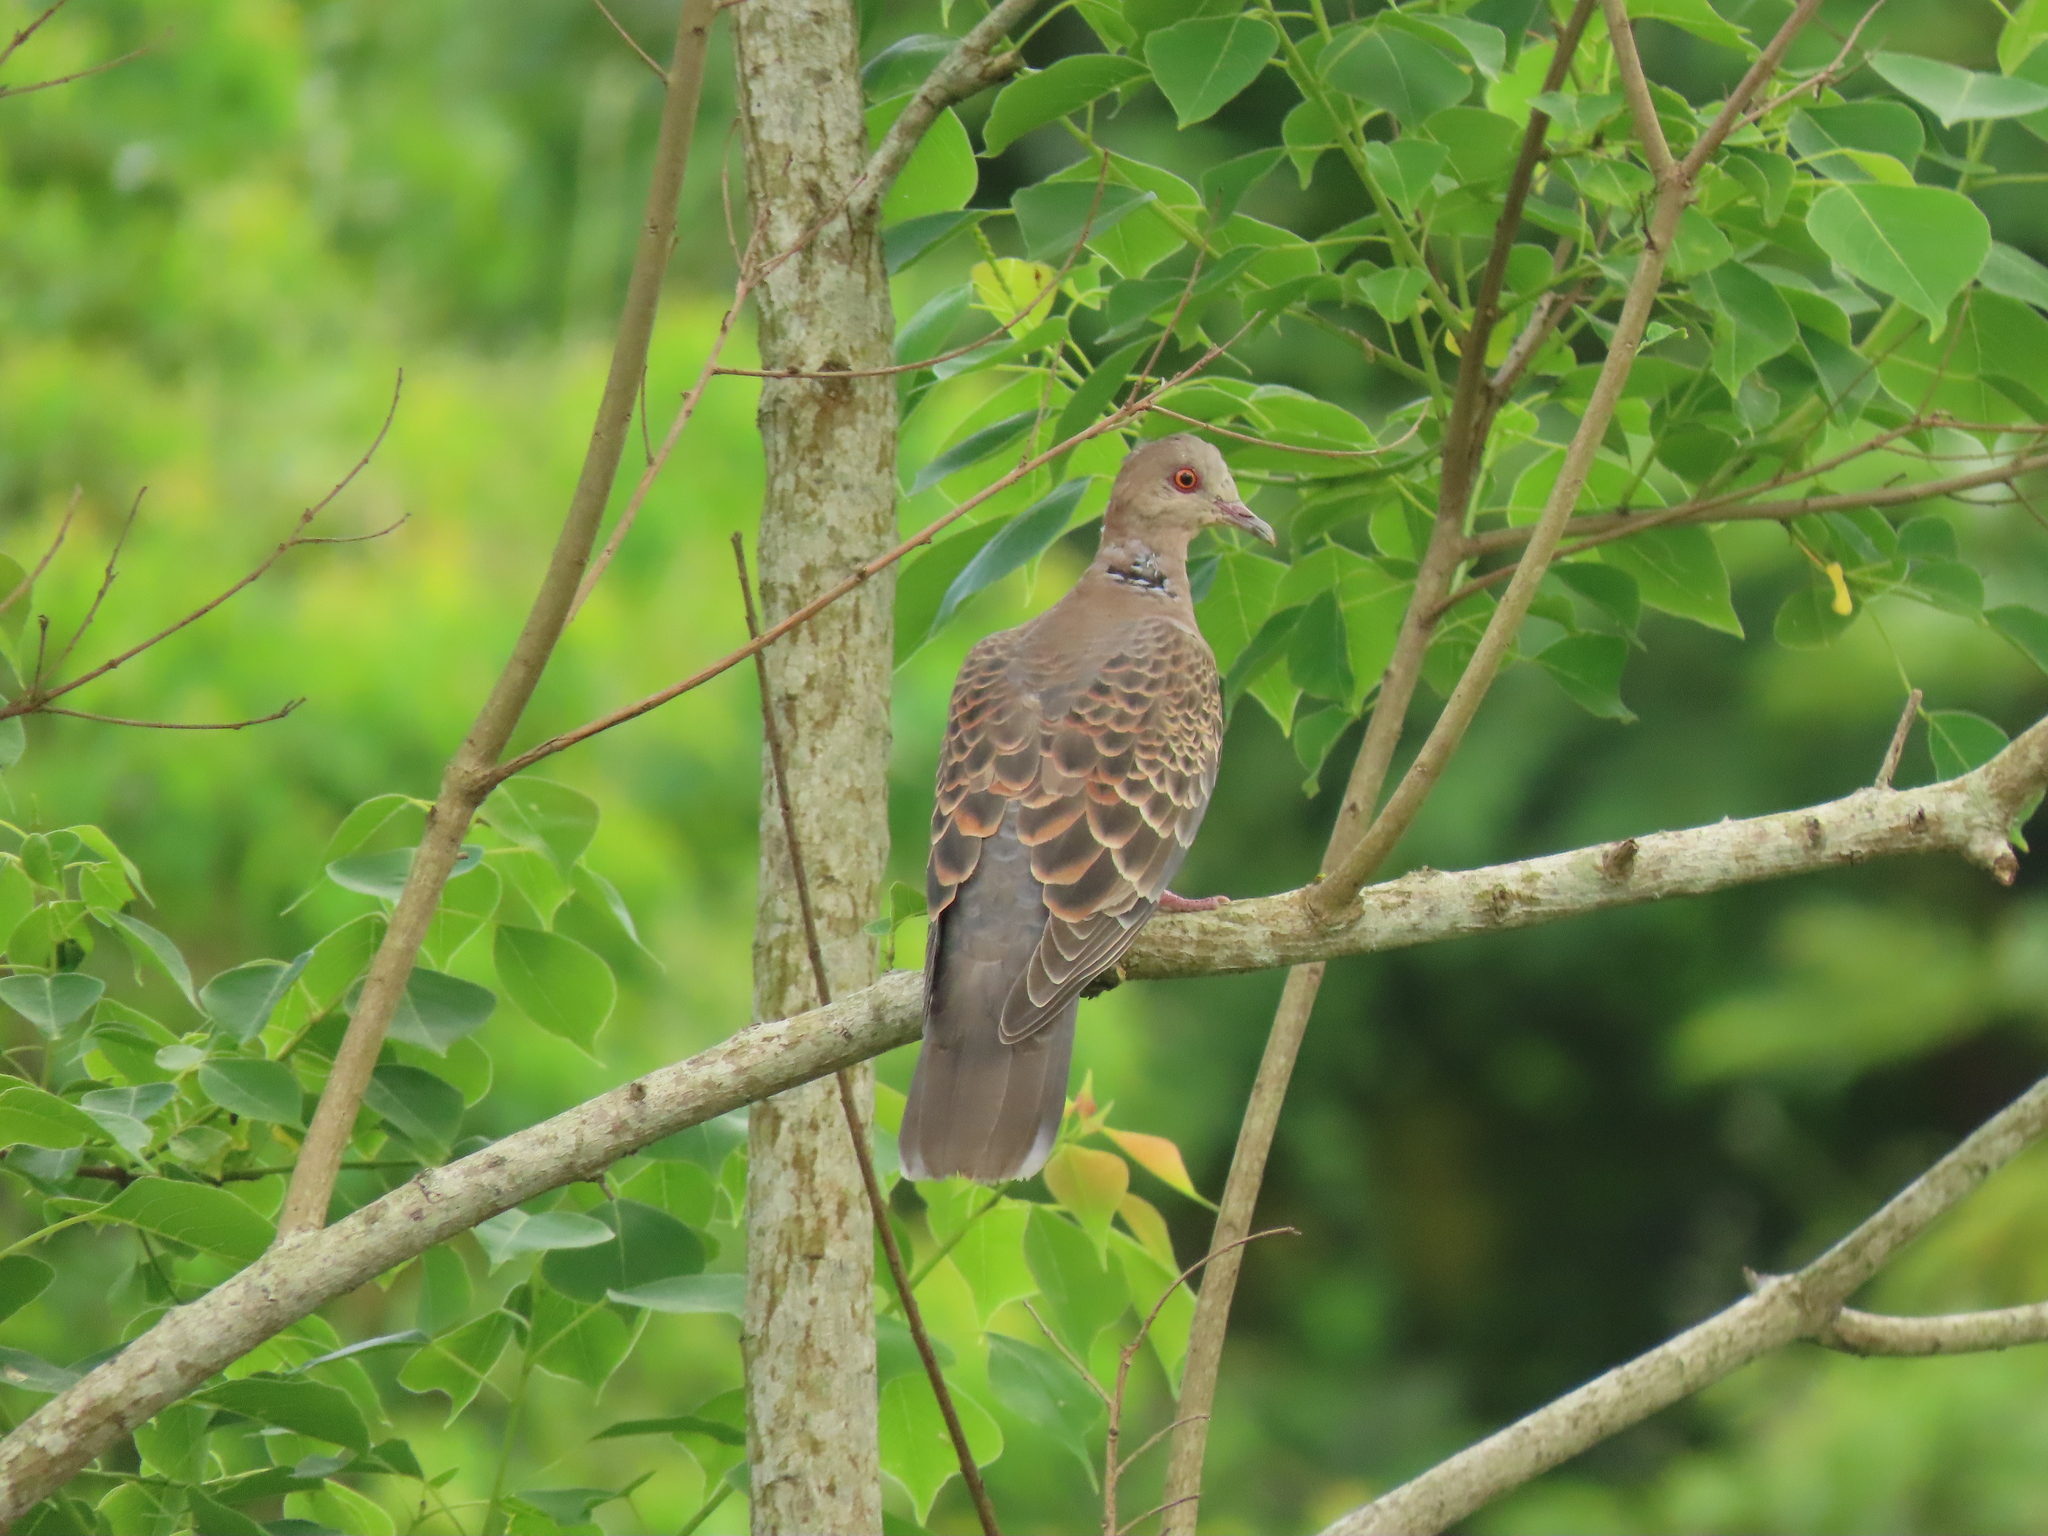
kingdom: Animalia
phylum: Chordata
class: Aves
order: Columbiformes
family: Columbidae
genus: Streptopelia
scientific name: Streptopelia orientalis
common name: Oriental turtle dove
